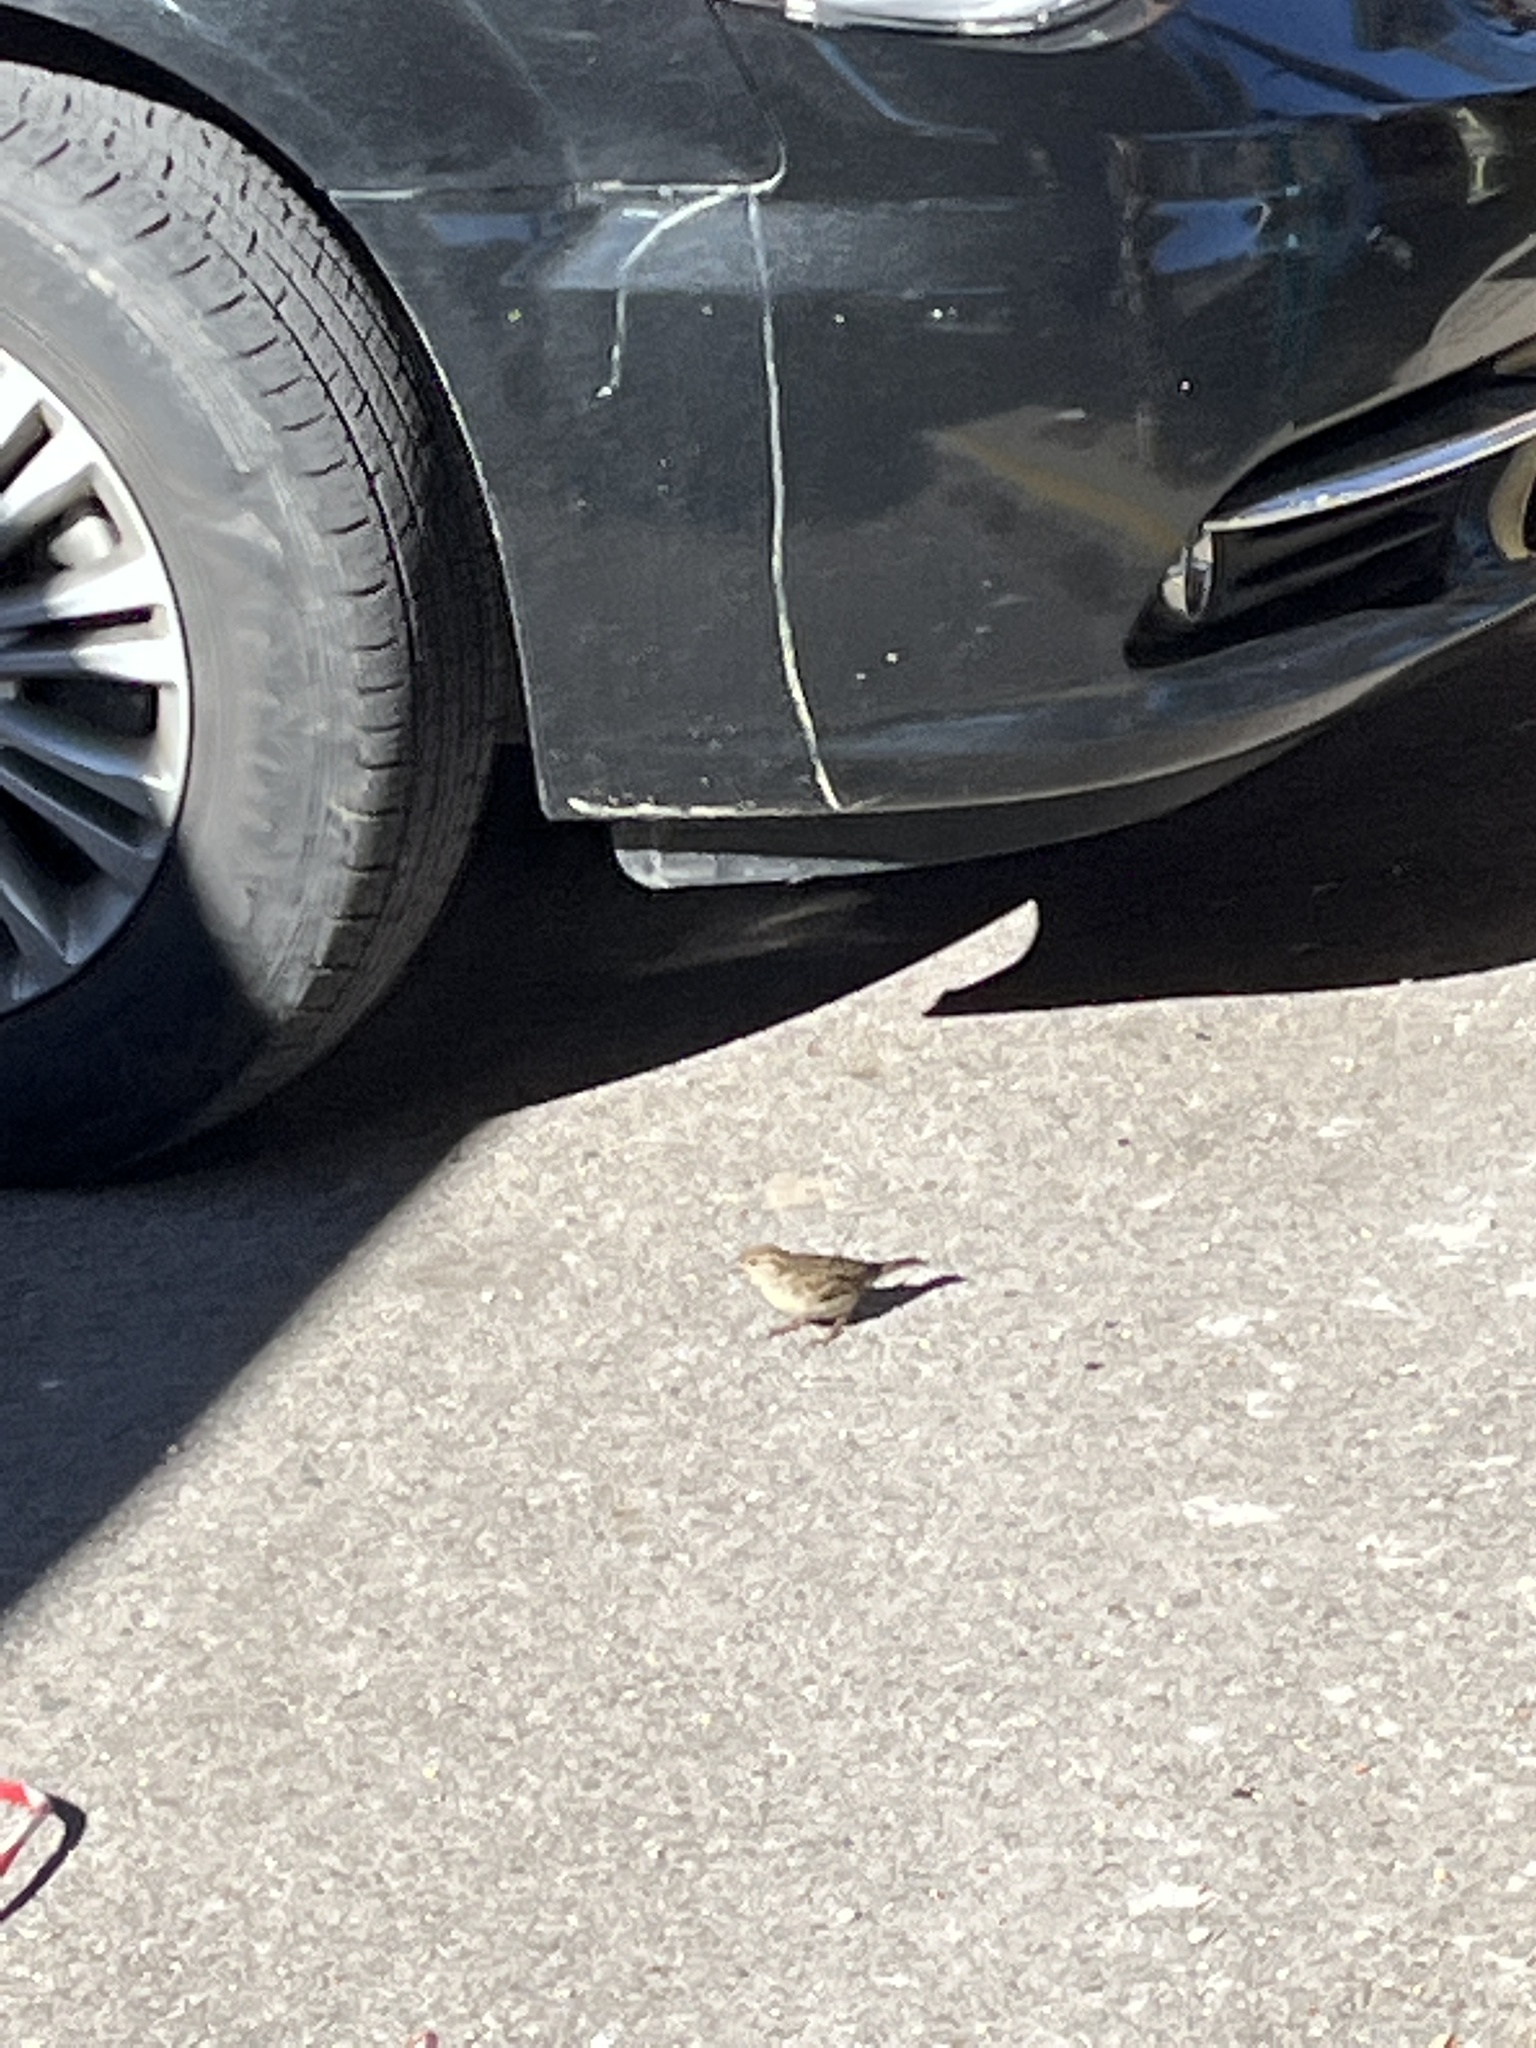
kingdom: Animalia
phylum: Chordata
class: Aves
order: Passeriformes
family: Passeridae
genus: Passer
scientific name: Passer domesticus
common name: House sparrow
